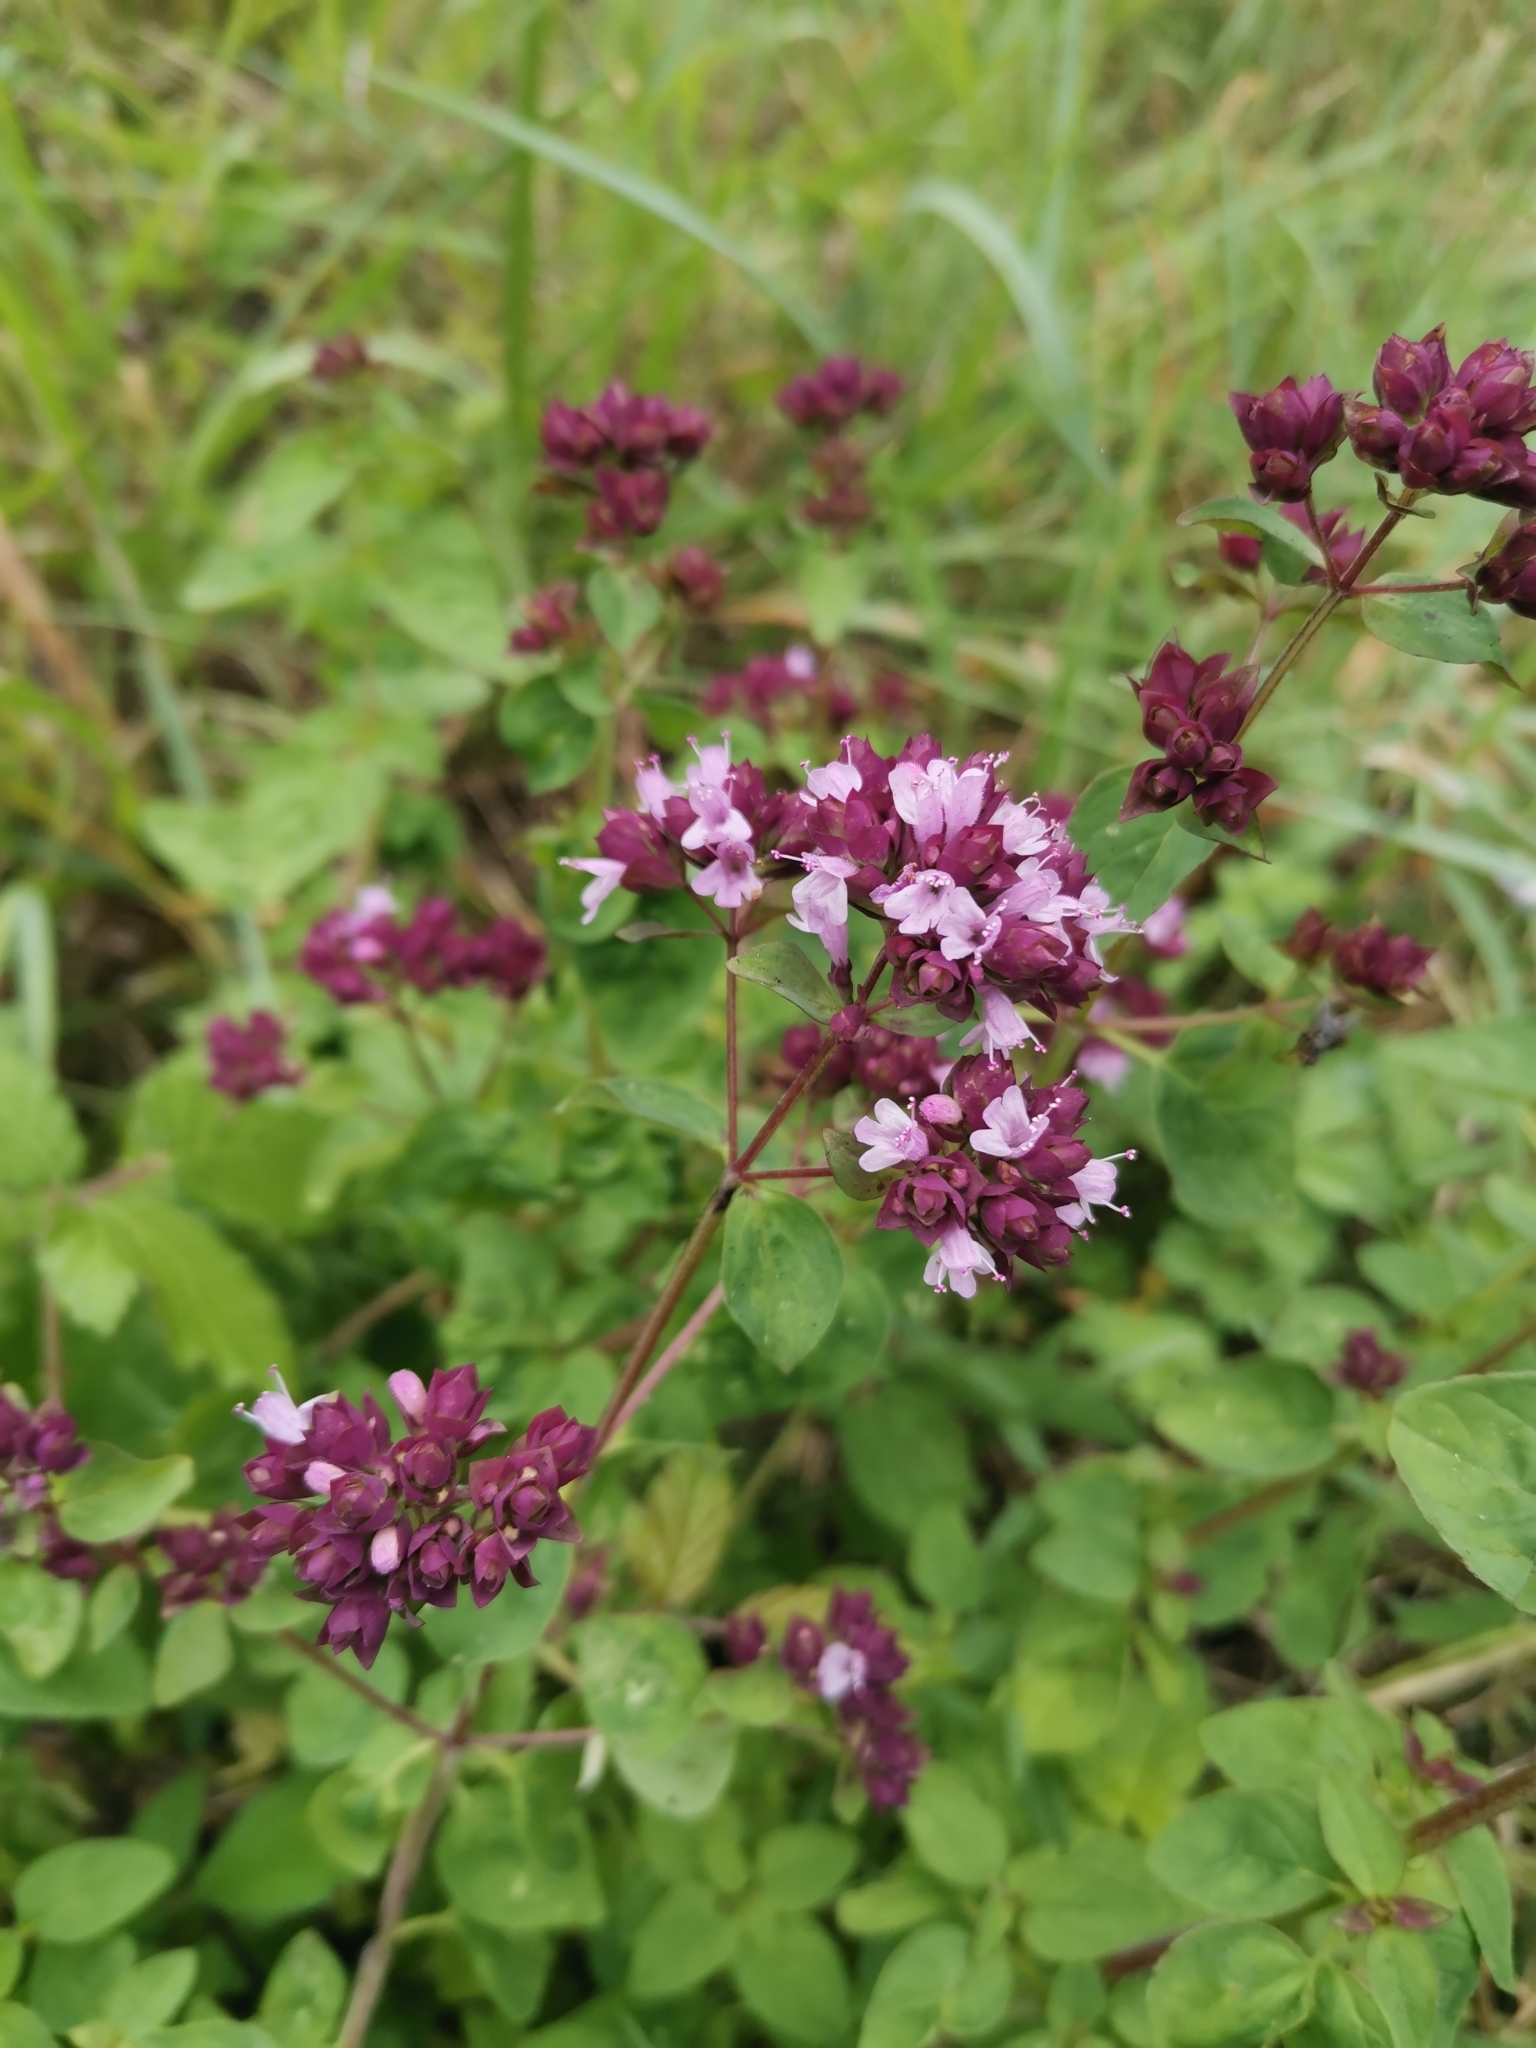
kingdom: Plantae
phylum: Tracheophyta
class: Magnoliopsida
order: Lamiales
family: Lamiaceae
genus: Origanum
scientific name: Origanum vulgare
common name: Wild marjoram
